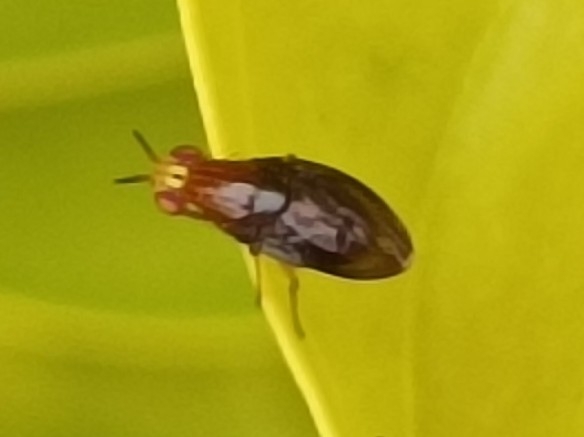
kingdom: Animalia
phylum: Arthropoda
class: Insecta
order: Diptera
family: Lauxaniidae
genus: Steganopsis
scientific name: Steganopsis melanogaster
